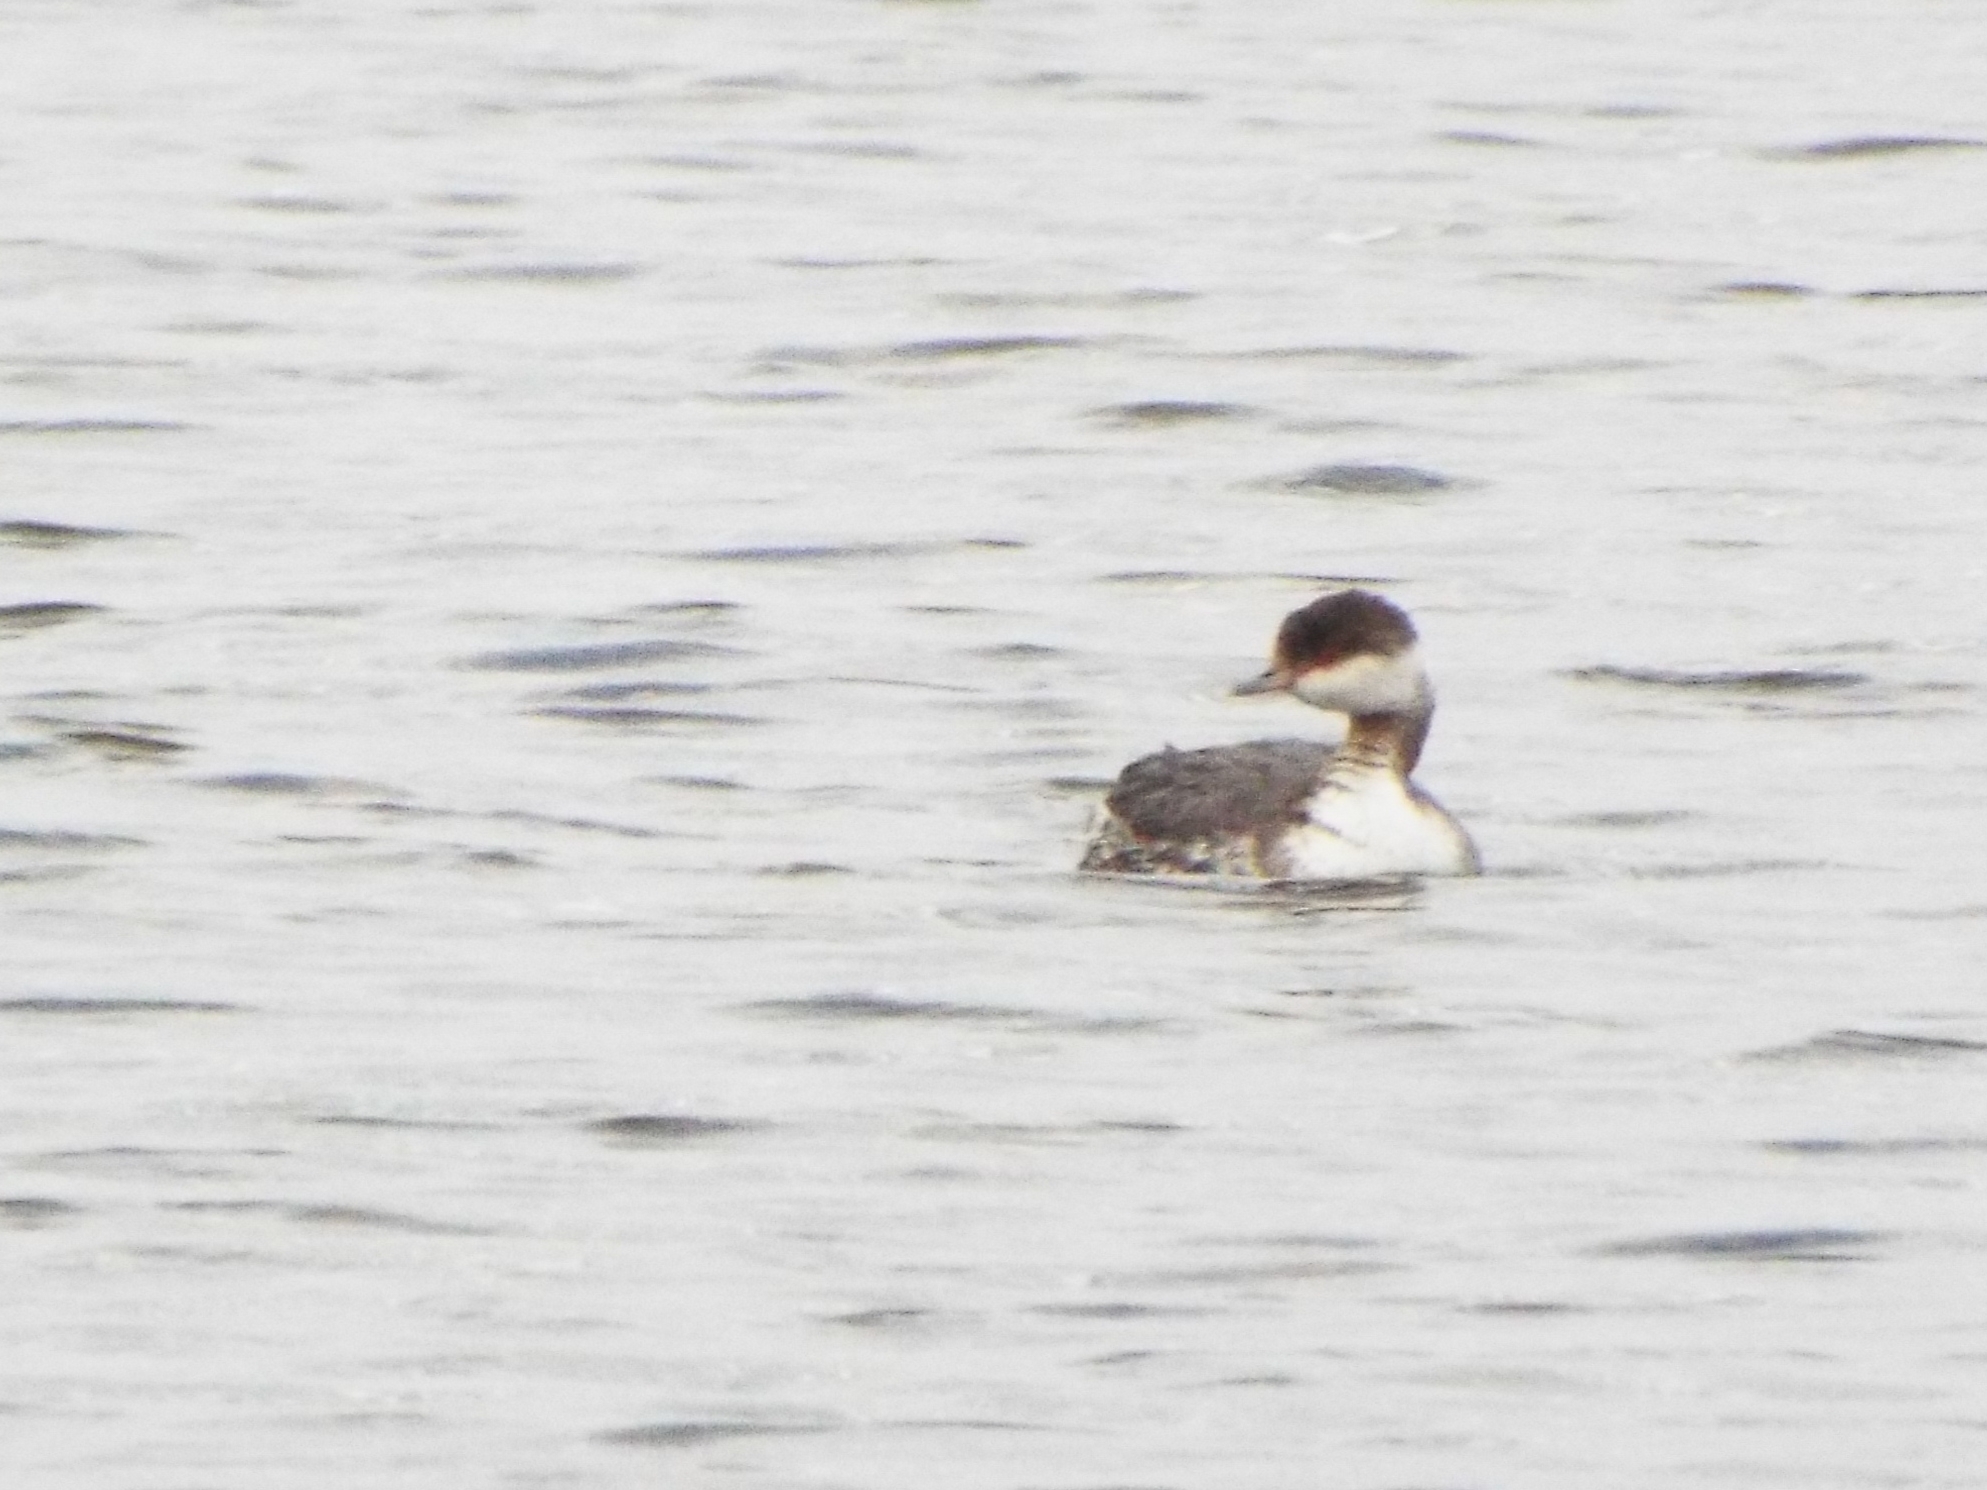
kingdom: Animalia
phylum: Chordata
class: Aves
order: Podicipediformes
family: Podicipedidae
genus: Podiceps
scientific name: Podiceps auritus
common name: Horned grebe
